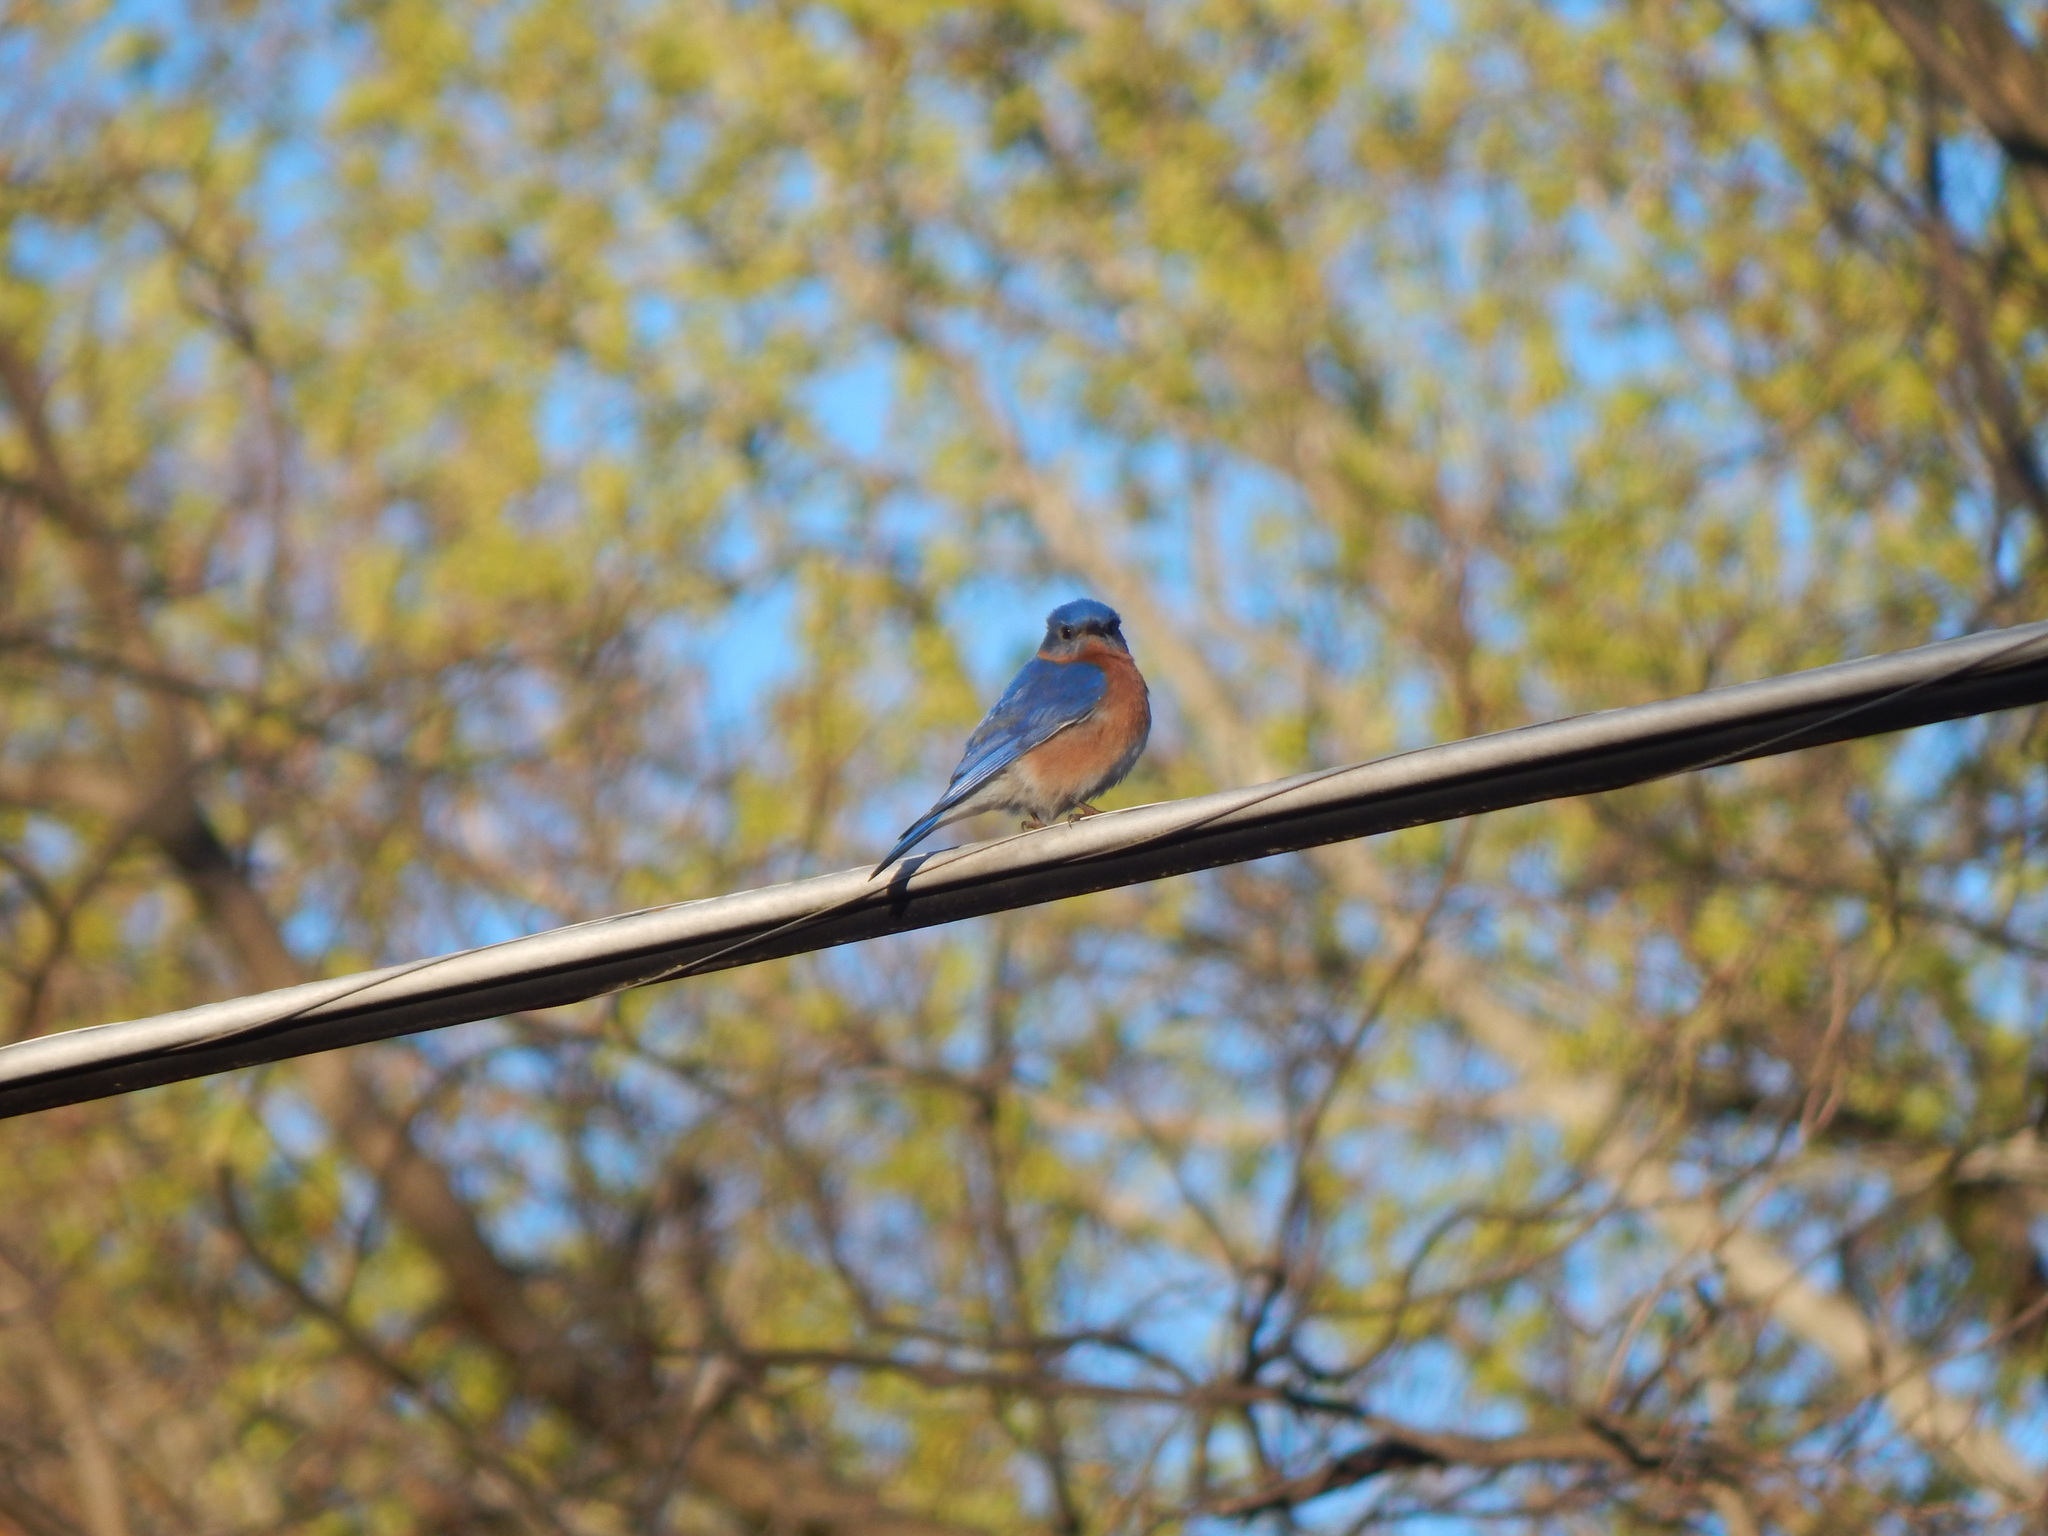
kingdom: Animalia
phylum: Chordata
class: Aves
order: Passeriformes
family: Turdidae
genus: Sialia
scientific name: Sialia sialis
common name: Eastern bluebird
